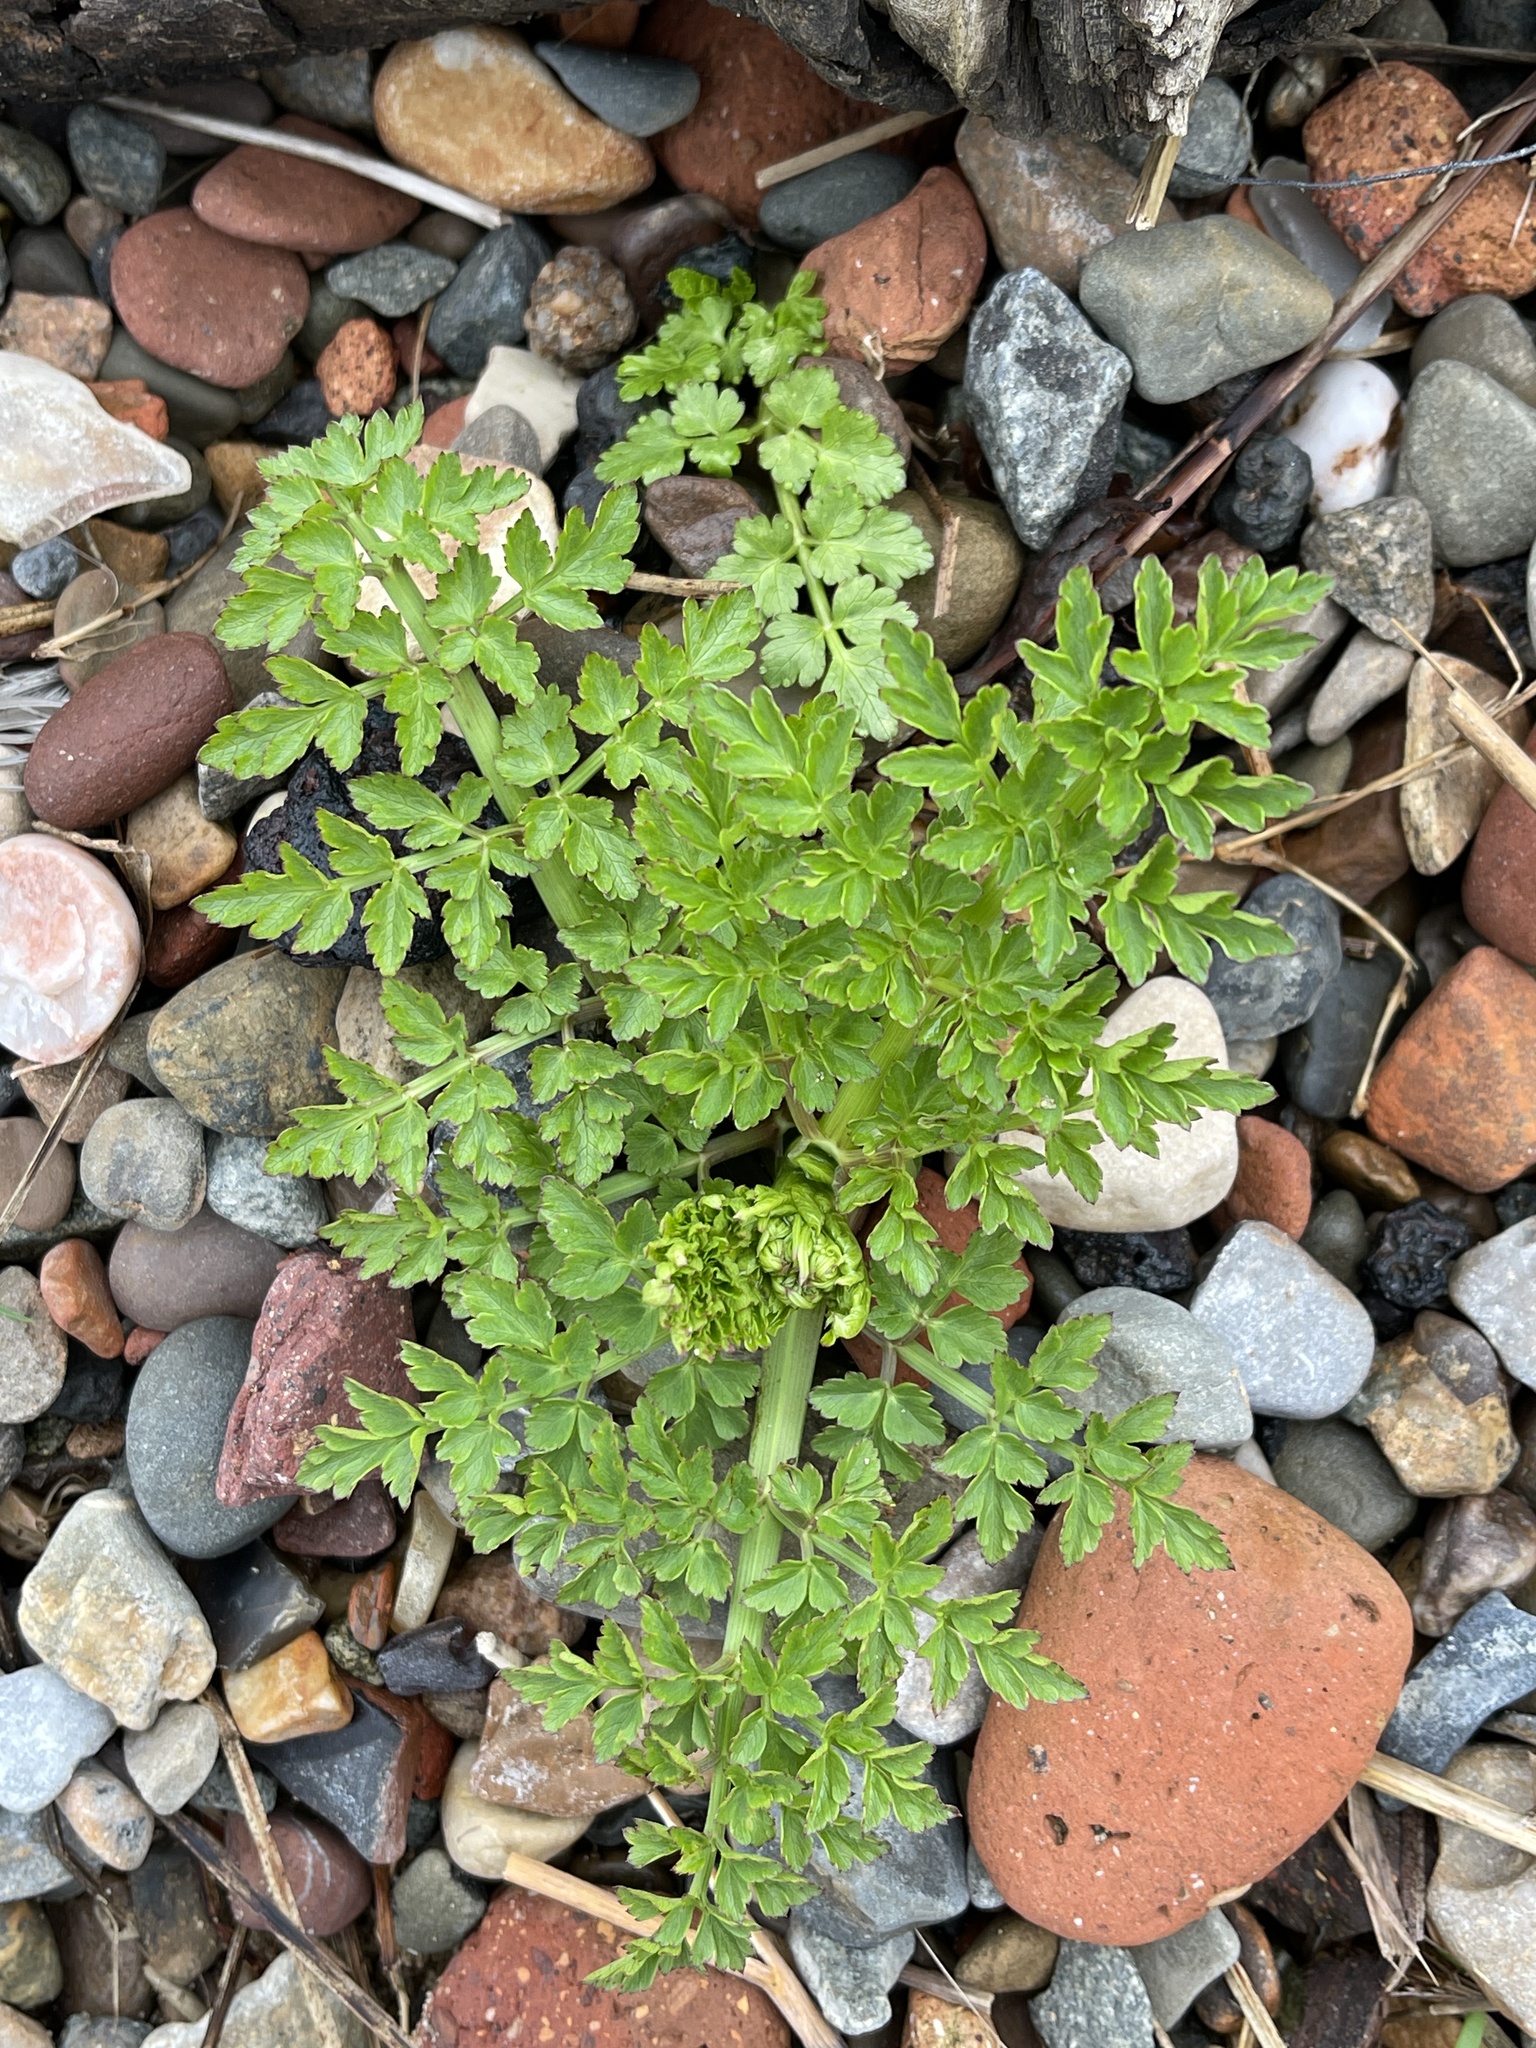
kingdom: Plantae
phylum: Tracheophyta
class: Magnoliopsida
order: Apiales
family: Apiaceae
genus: Oenanthe
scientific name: Oenanthe crocata
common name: Hemlock water-dropwort
